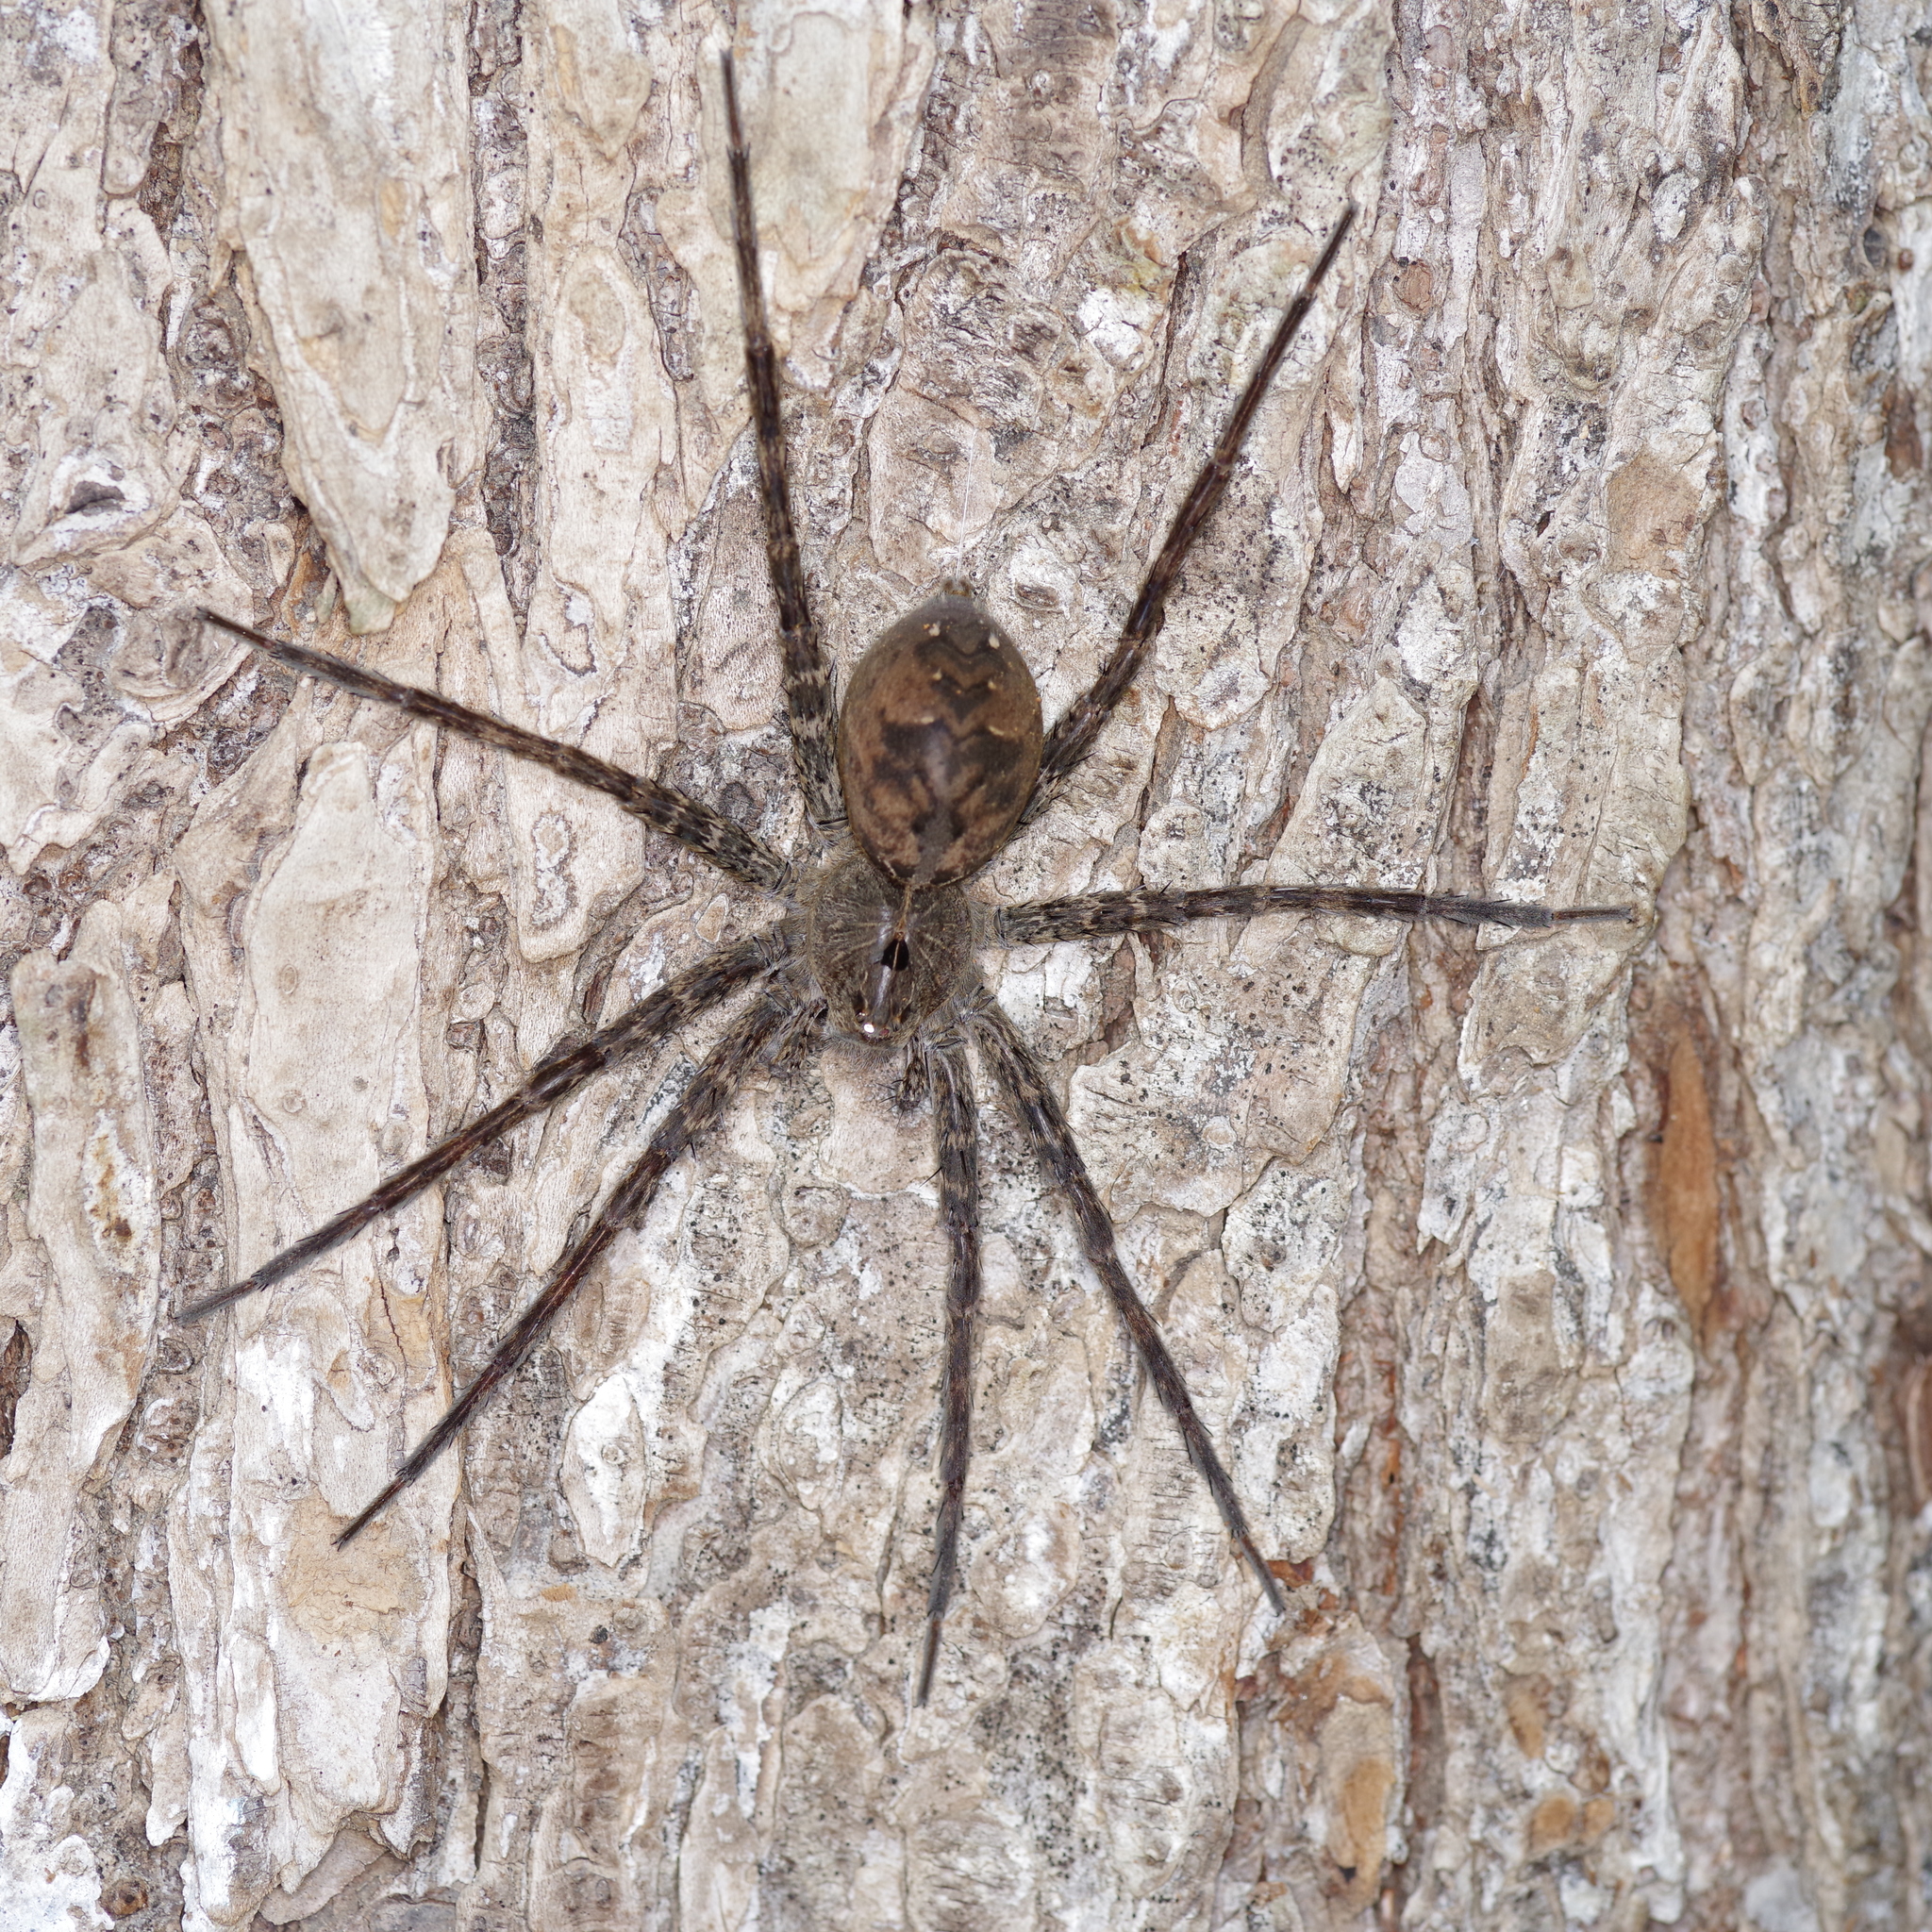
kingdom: Animalia
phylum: Arthropoda
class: Arachnida
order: Araneae
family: Pisauridae
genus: Dolomedes
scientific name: Dolomedes vittatus
